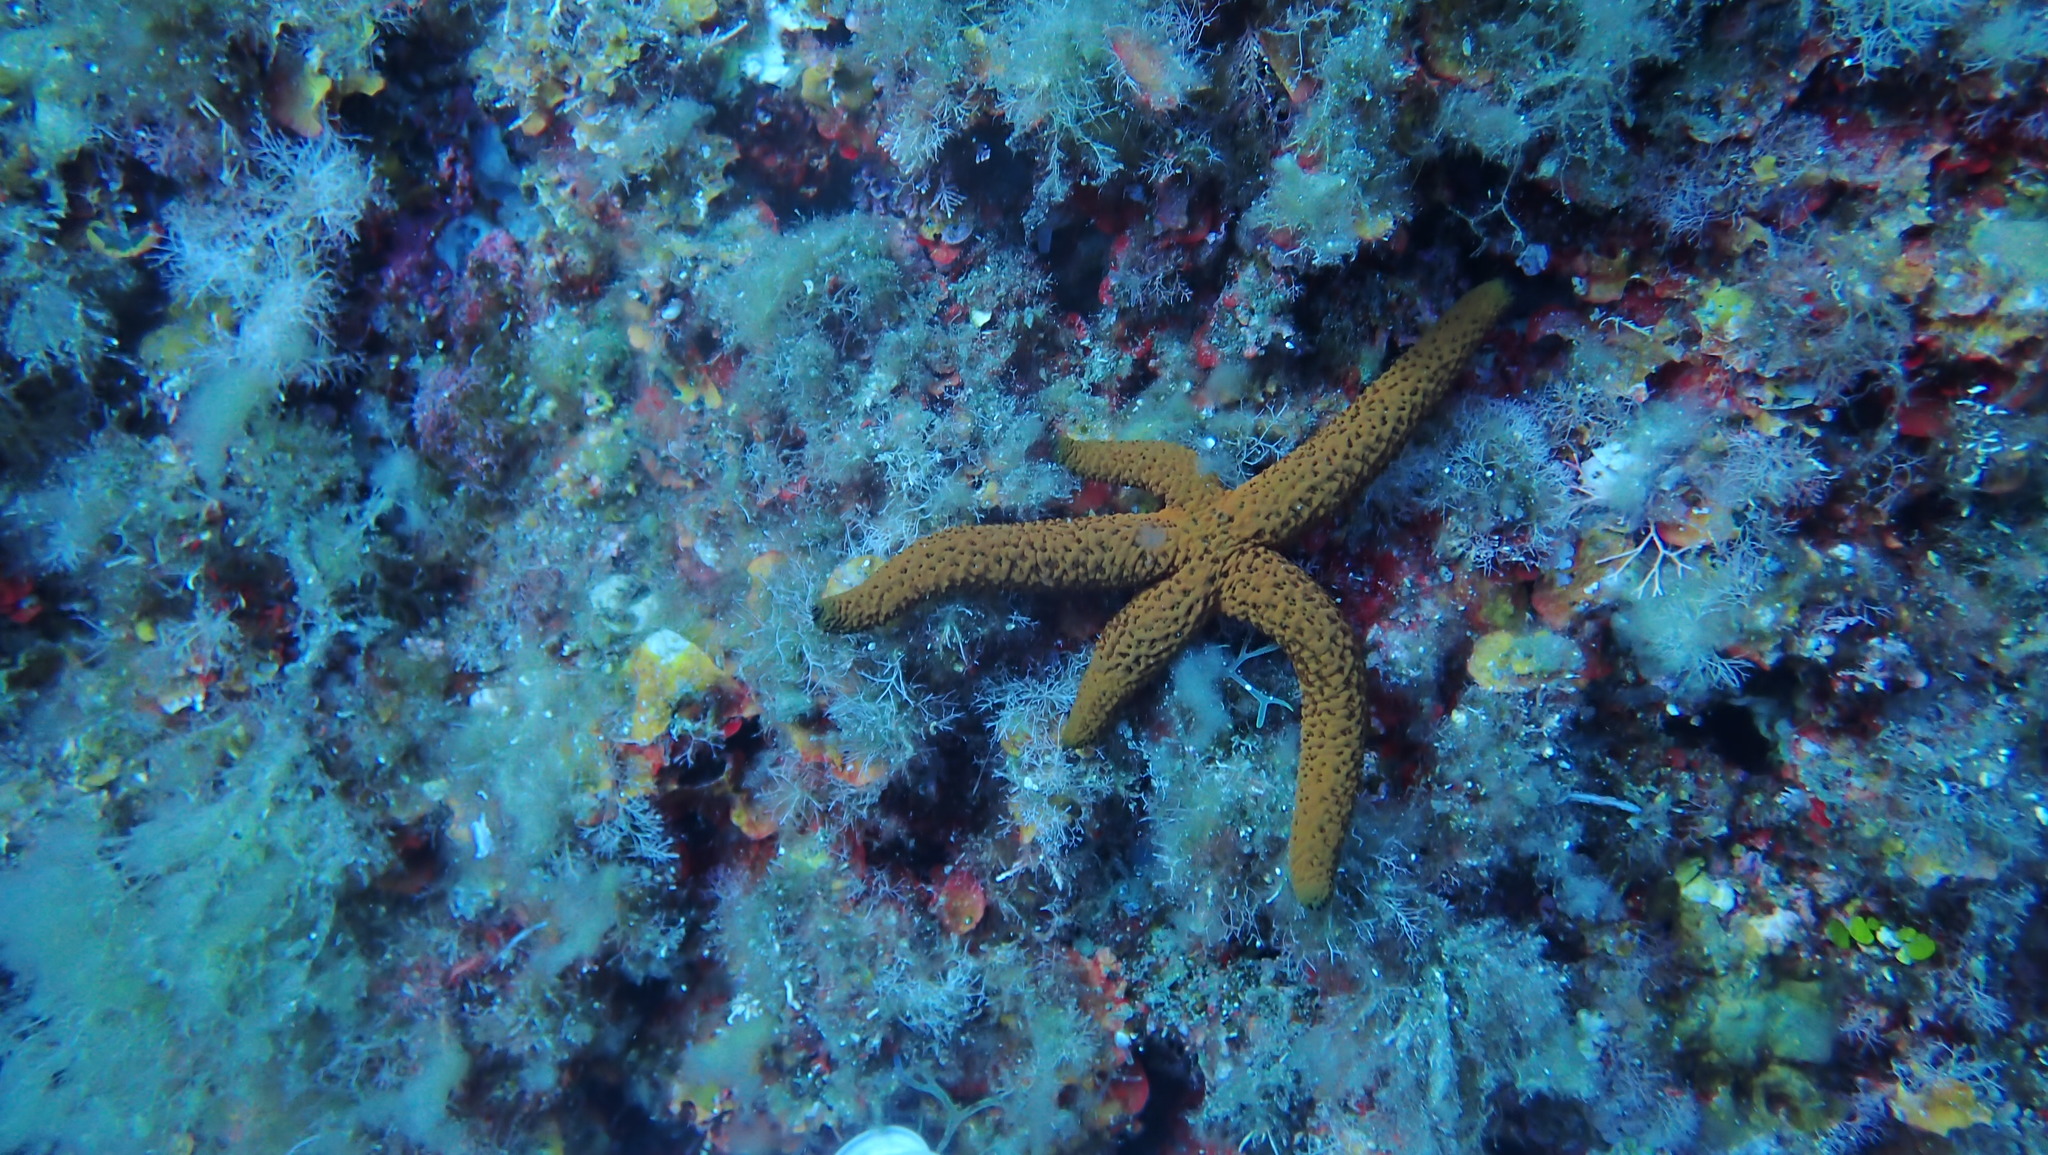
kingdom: Animalia
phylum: Echinodermata
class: Asteroidea
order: Spinulosida
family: Echinasteridae
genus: Echinaster
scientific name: Echinaster sepositus
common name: Red starfish
